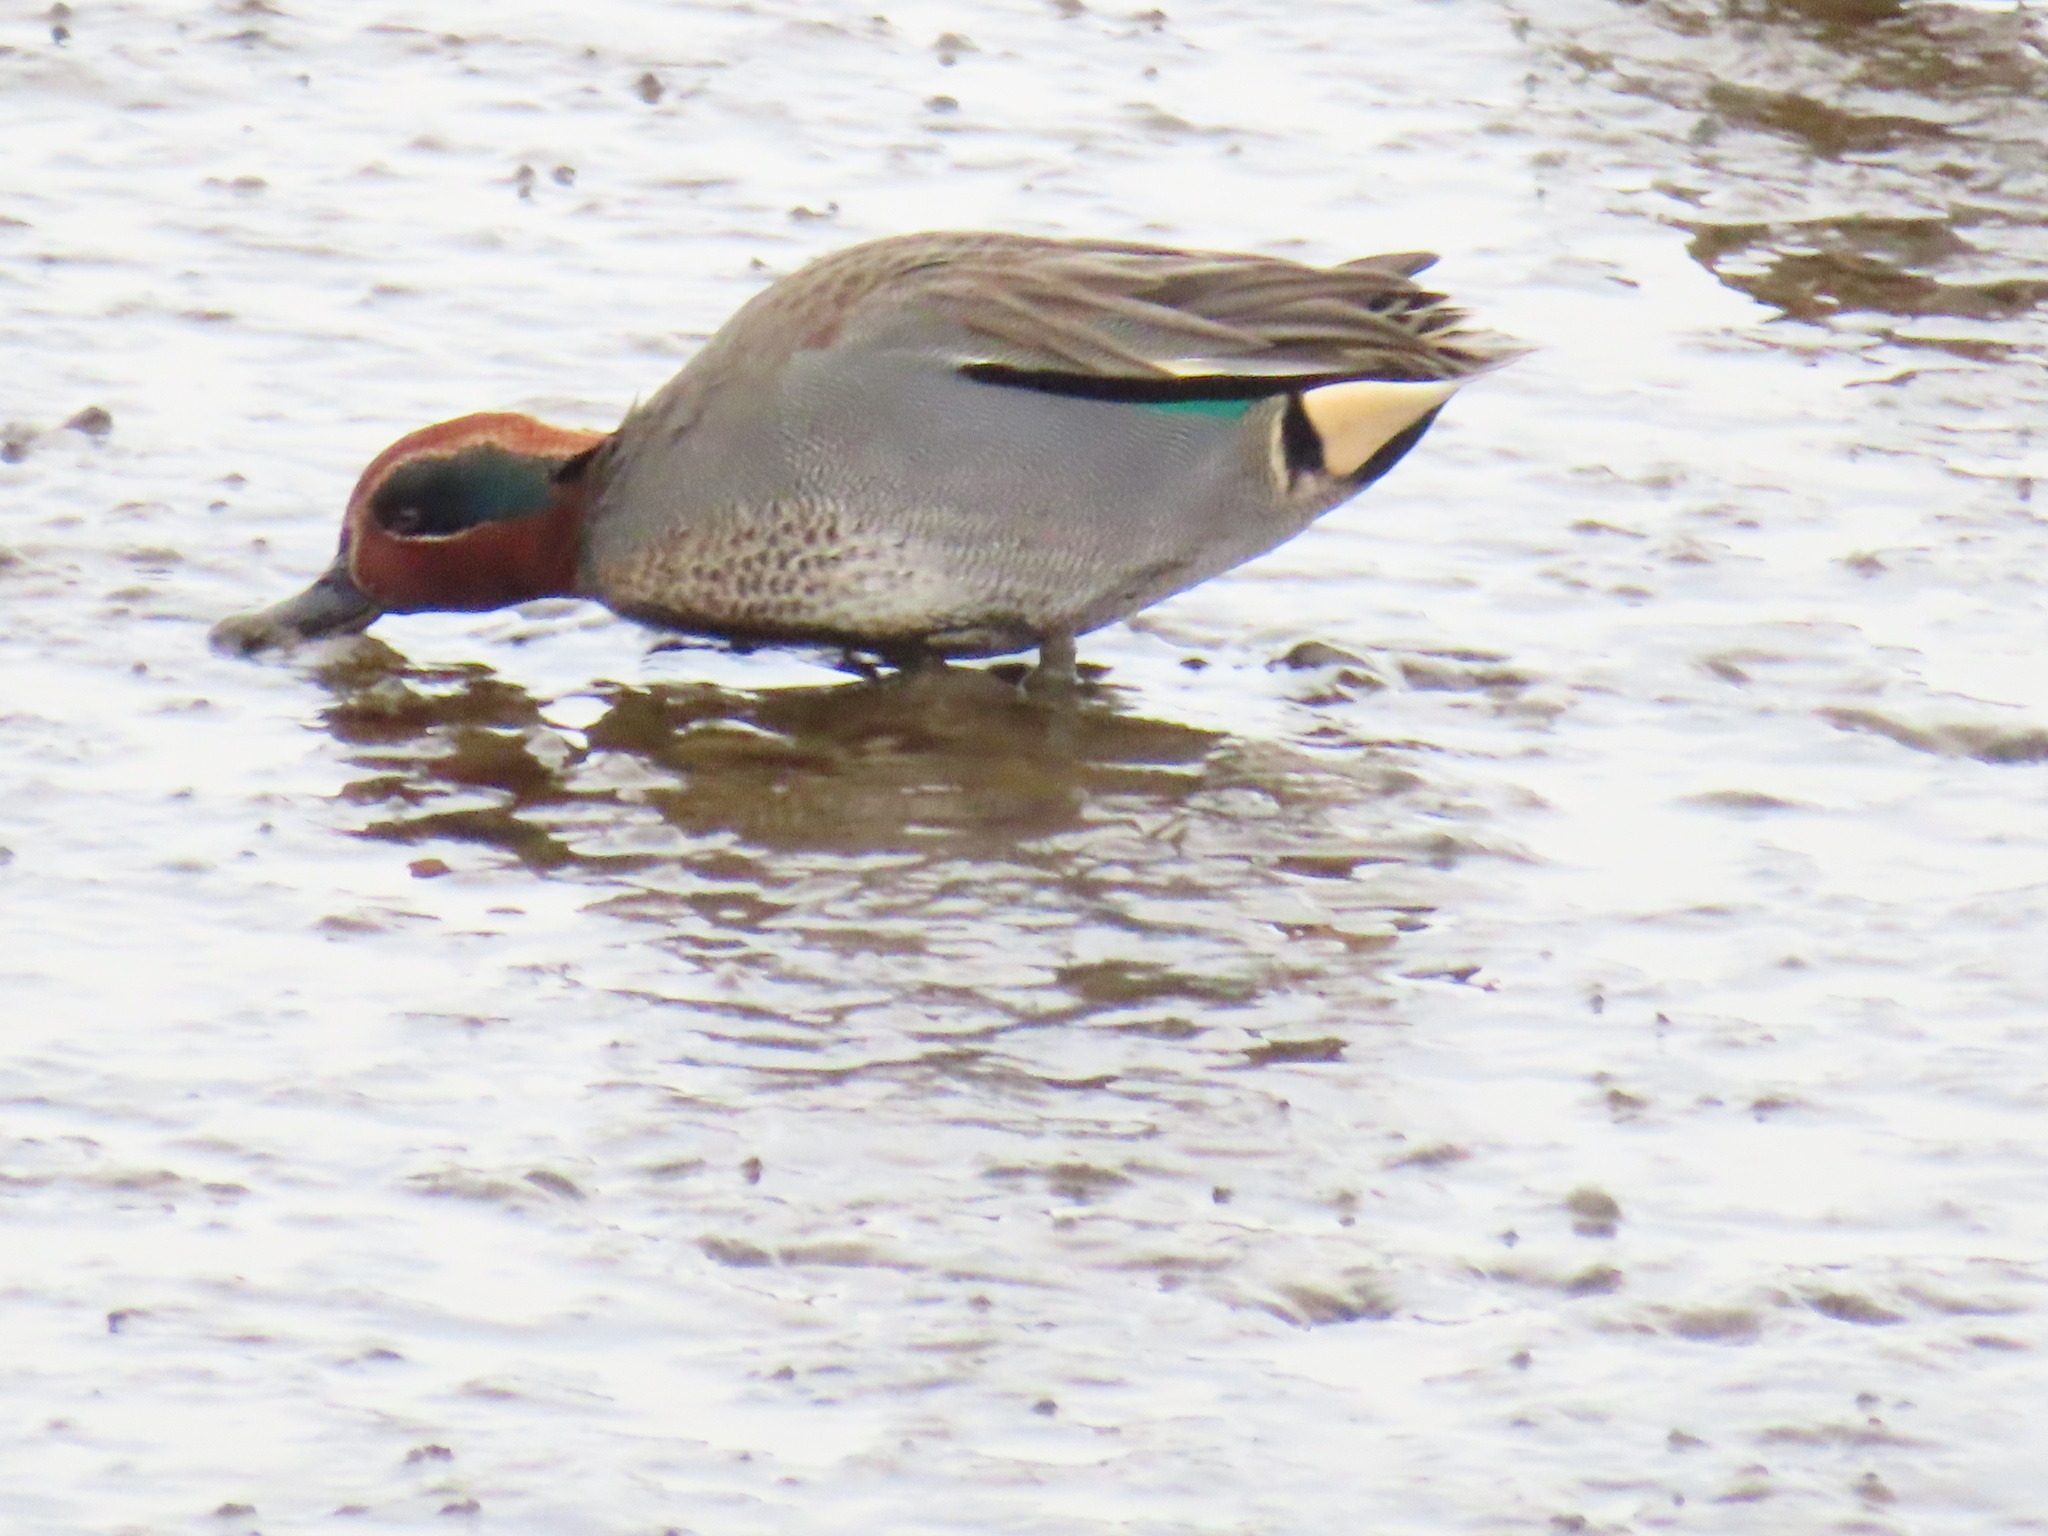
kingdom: Animalia
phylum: Chordata
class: Aves
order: Anseriformes
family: Anatidae
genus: Anas
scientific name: Anas crecca
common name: Eurasian teal
